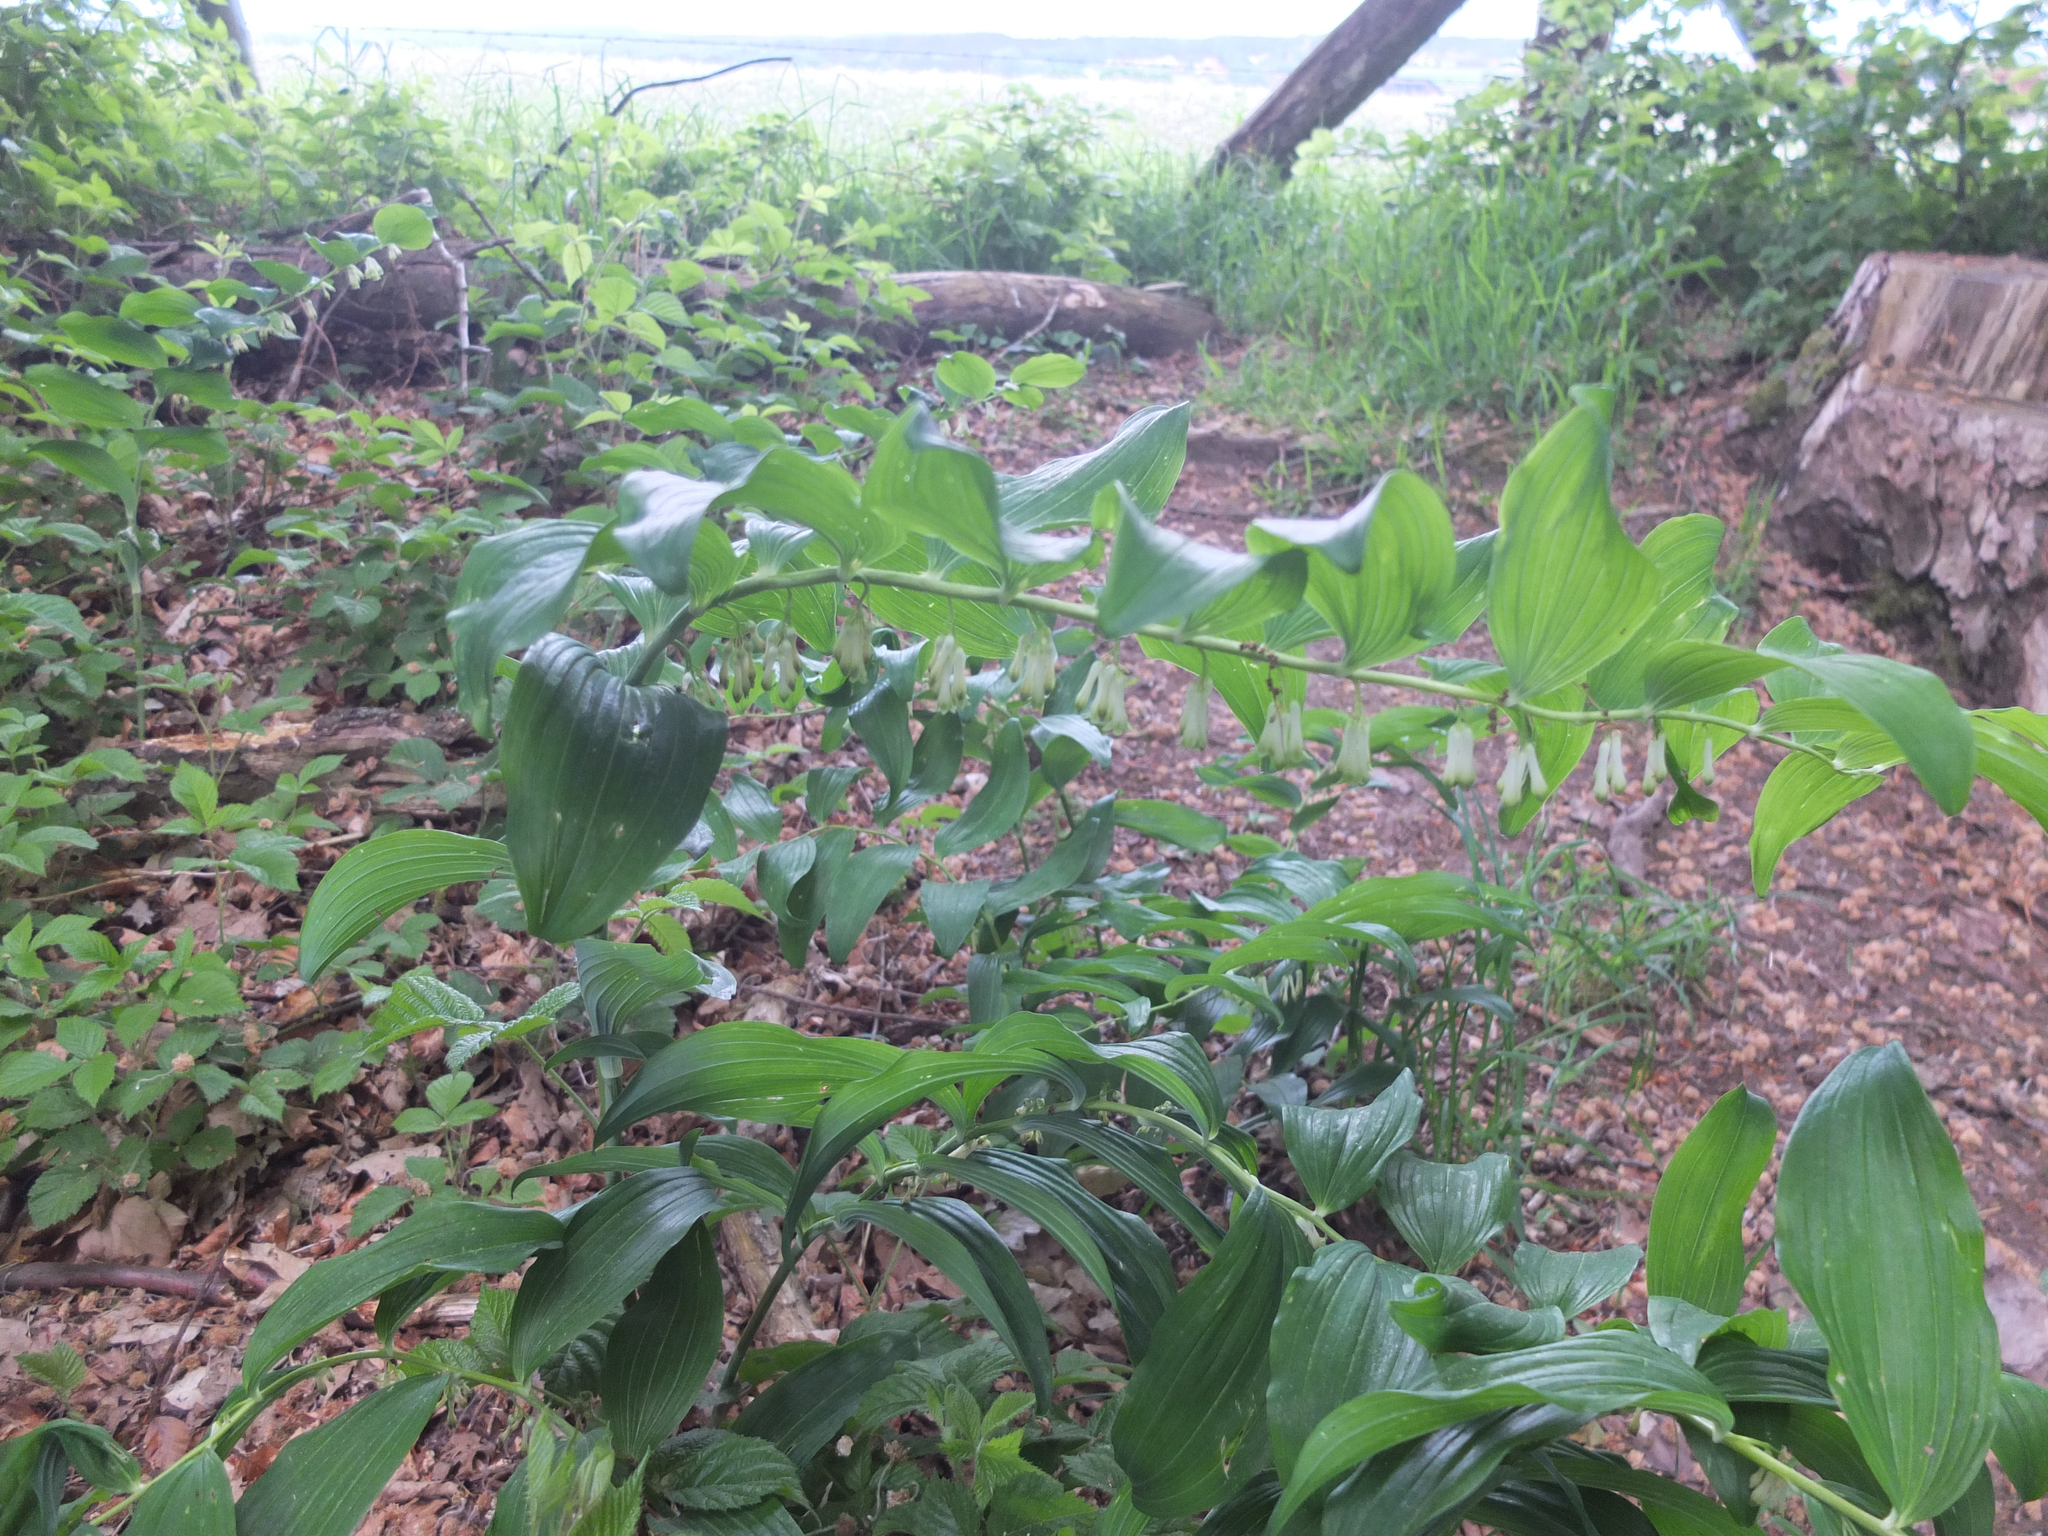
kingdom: Plantae
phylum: Tracheophyta
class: Liliopsida
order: Asparagales
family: Asparagaceae
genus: Polygonatum
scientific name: Polygonatum multiflorum
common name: Solomon's-seal
